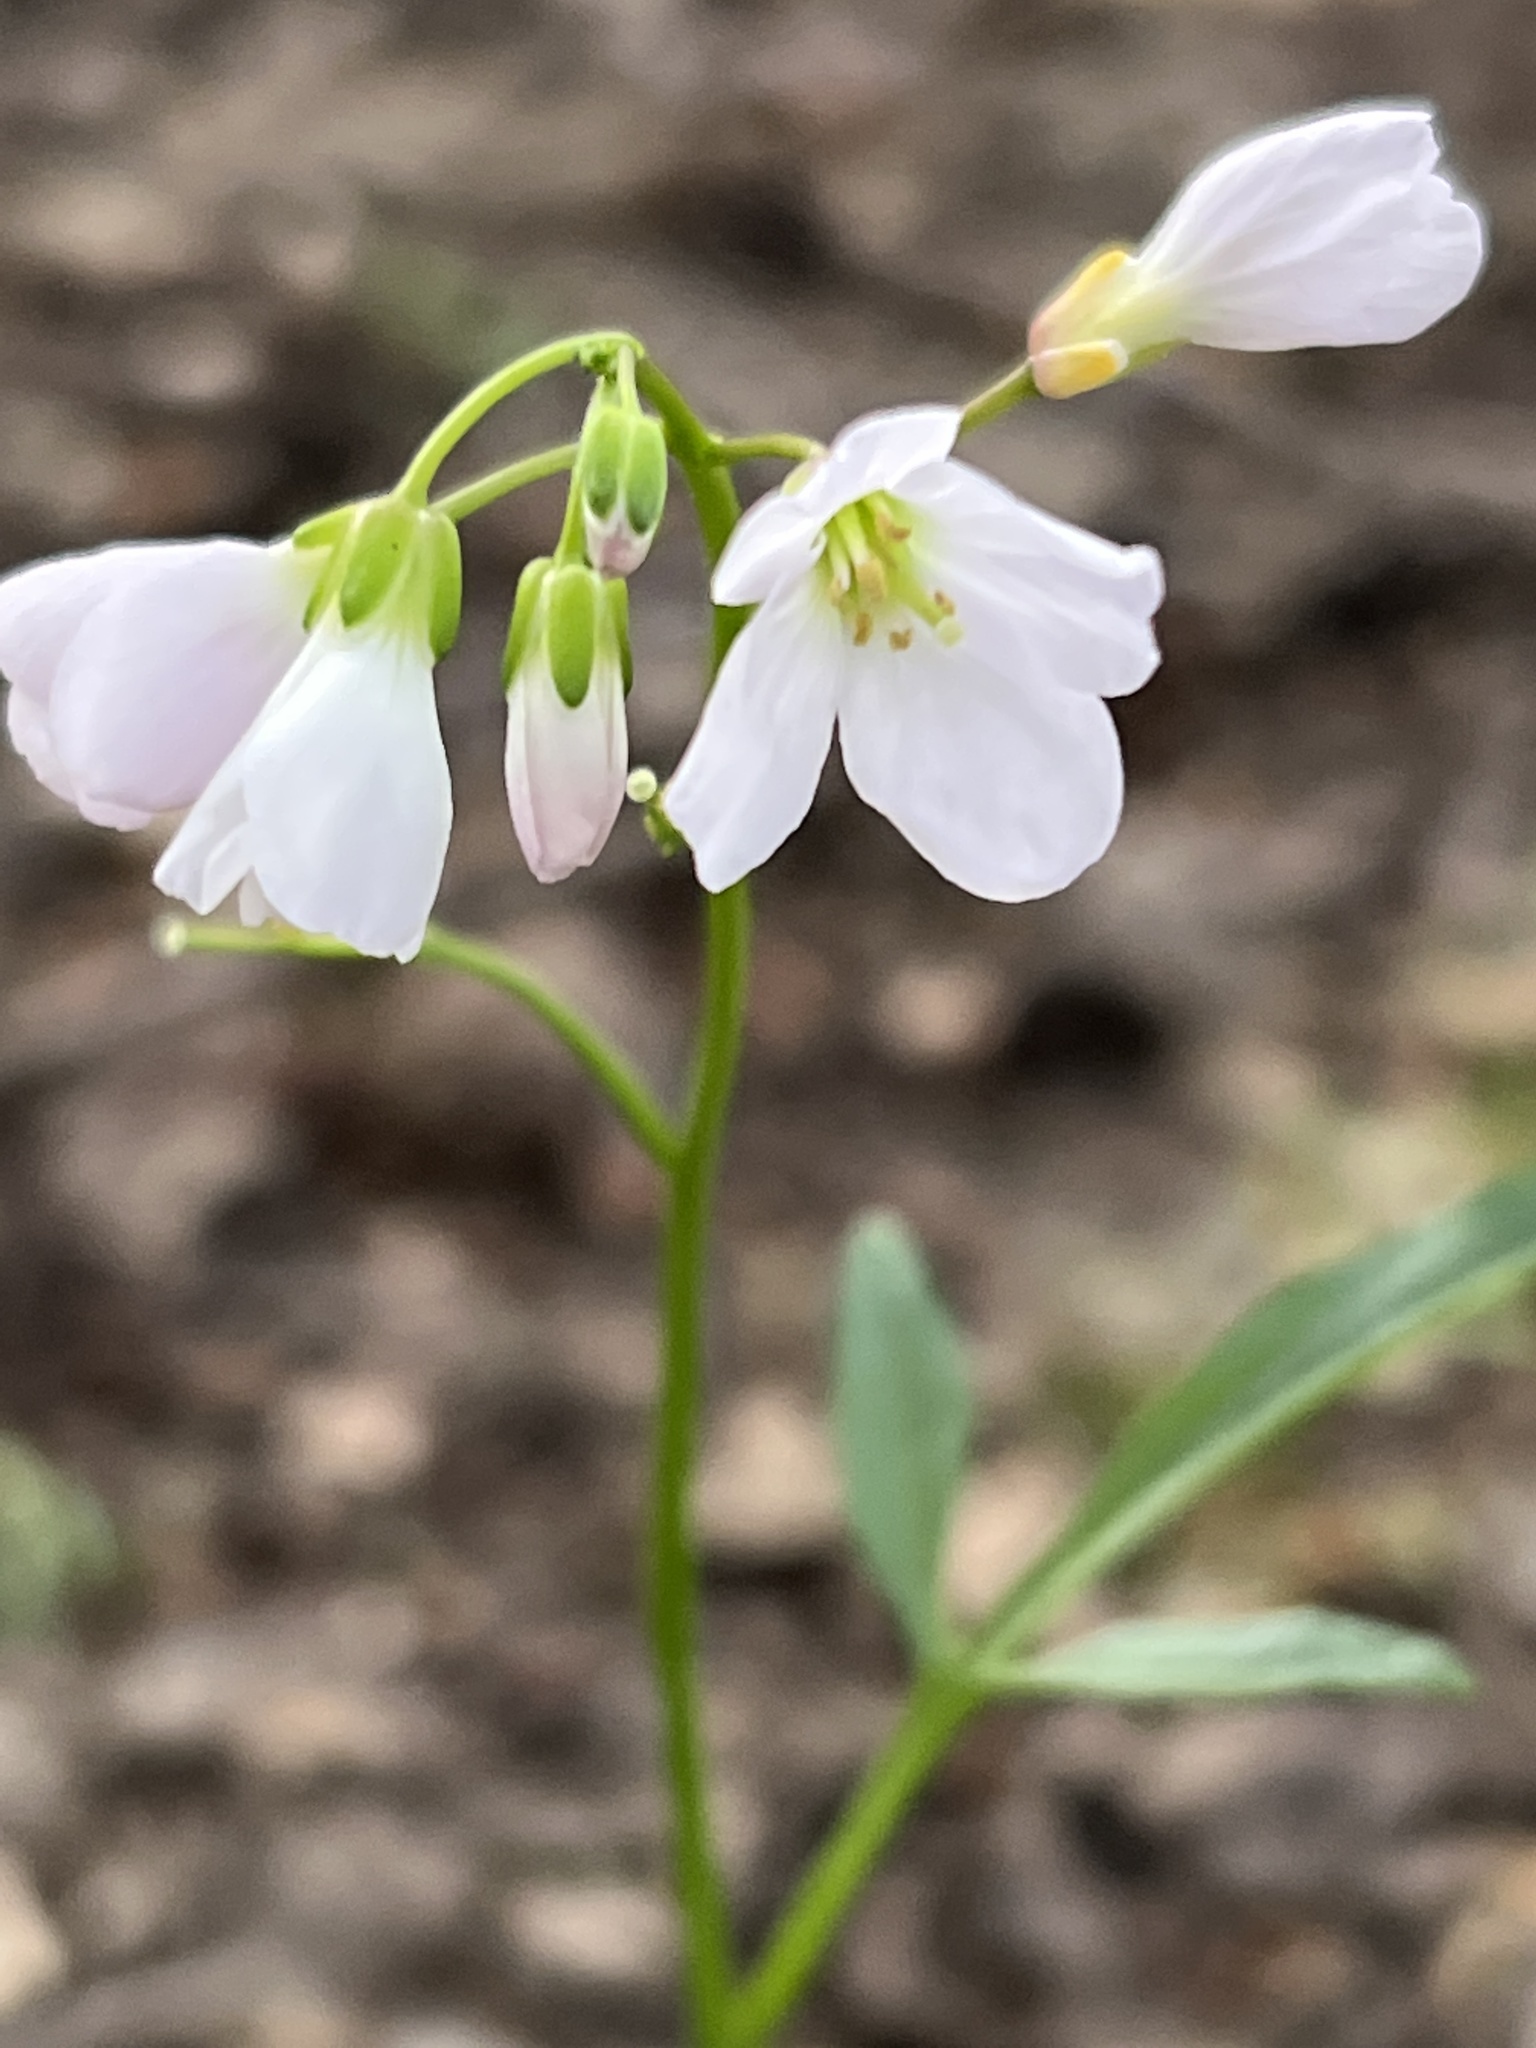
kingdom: Plantae
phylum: Tracheophyta
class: Magnoliopsida
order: Brassicales
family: Brassicaceae
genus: Cardamine
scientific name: Cardamine nuttallii
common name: Nuttall's toothwort
